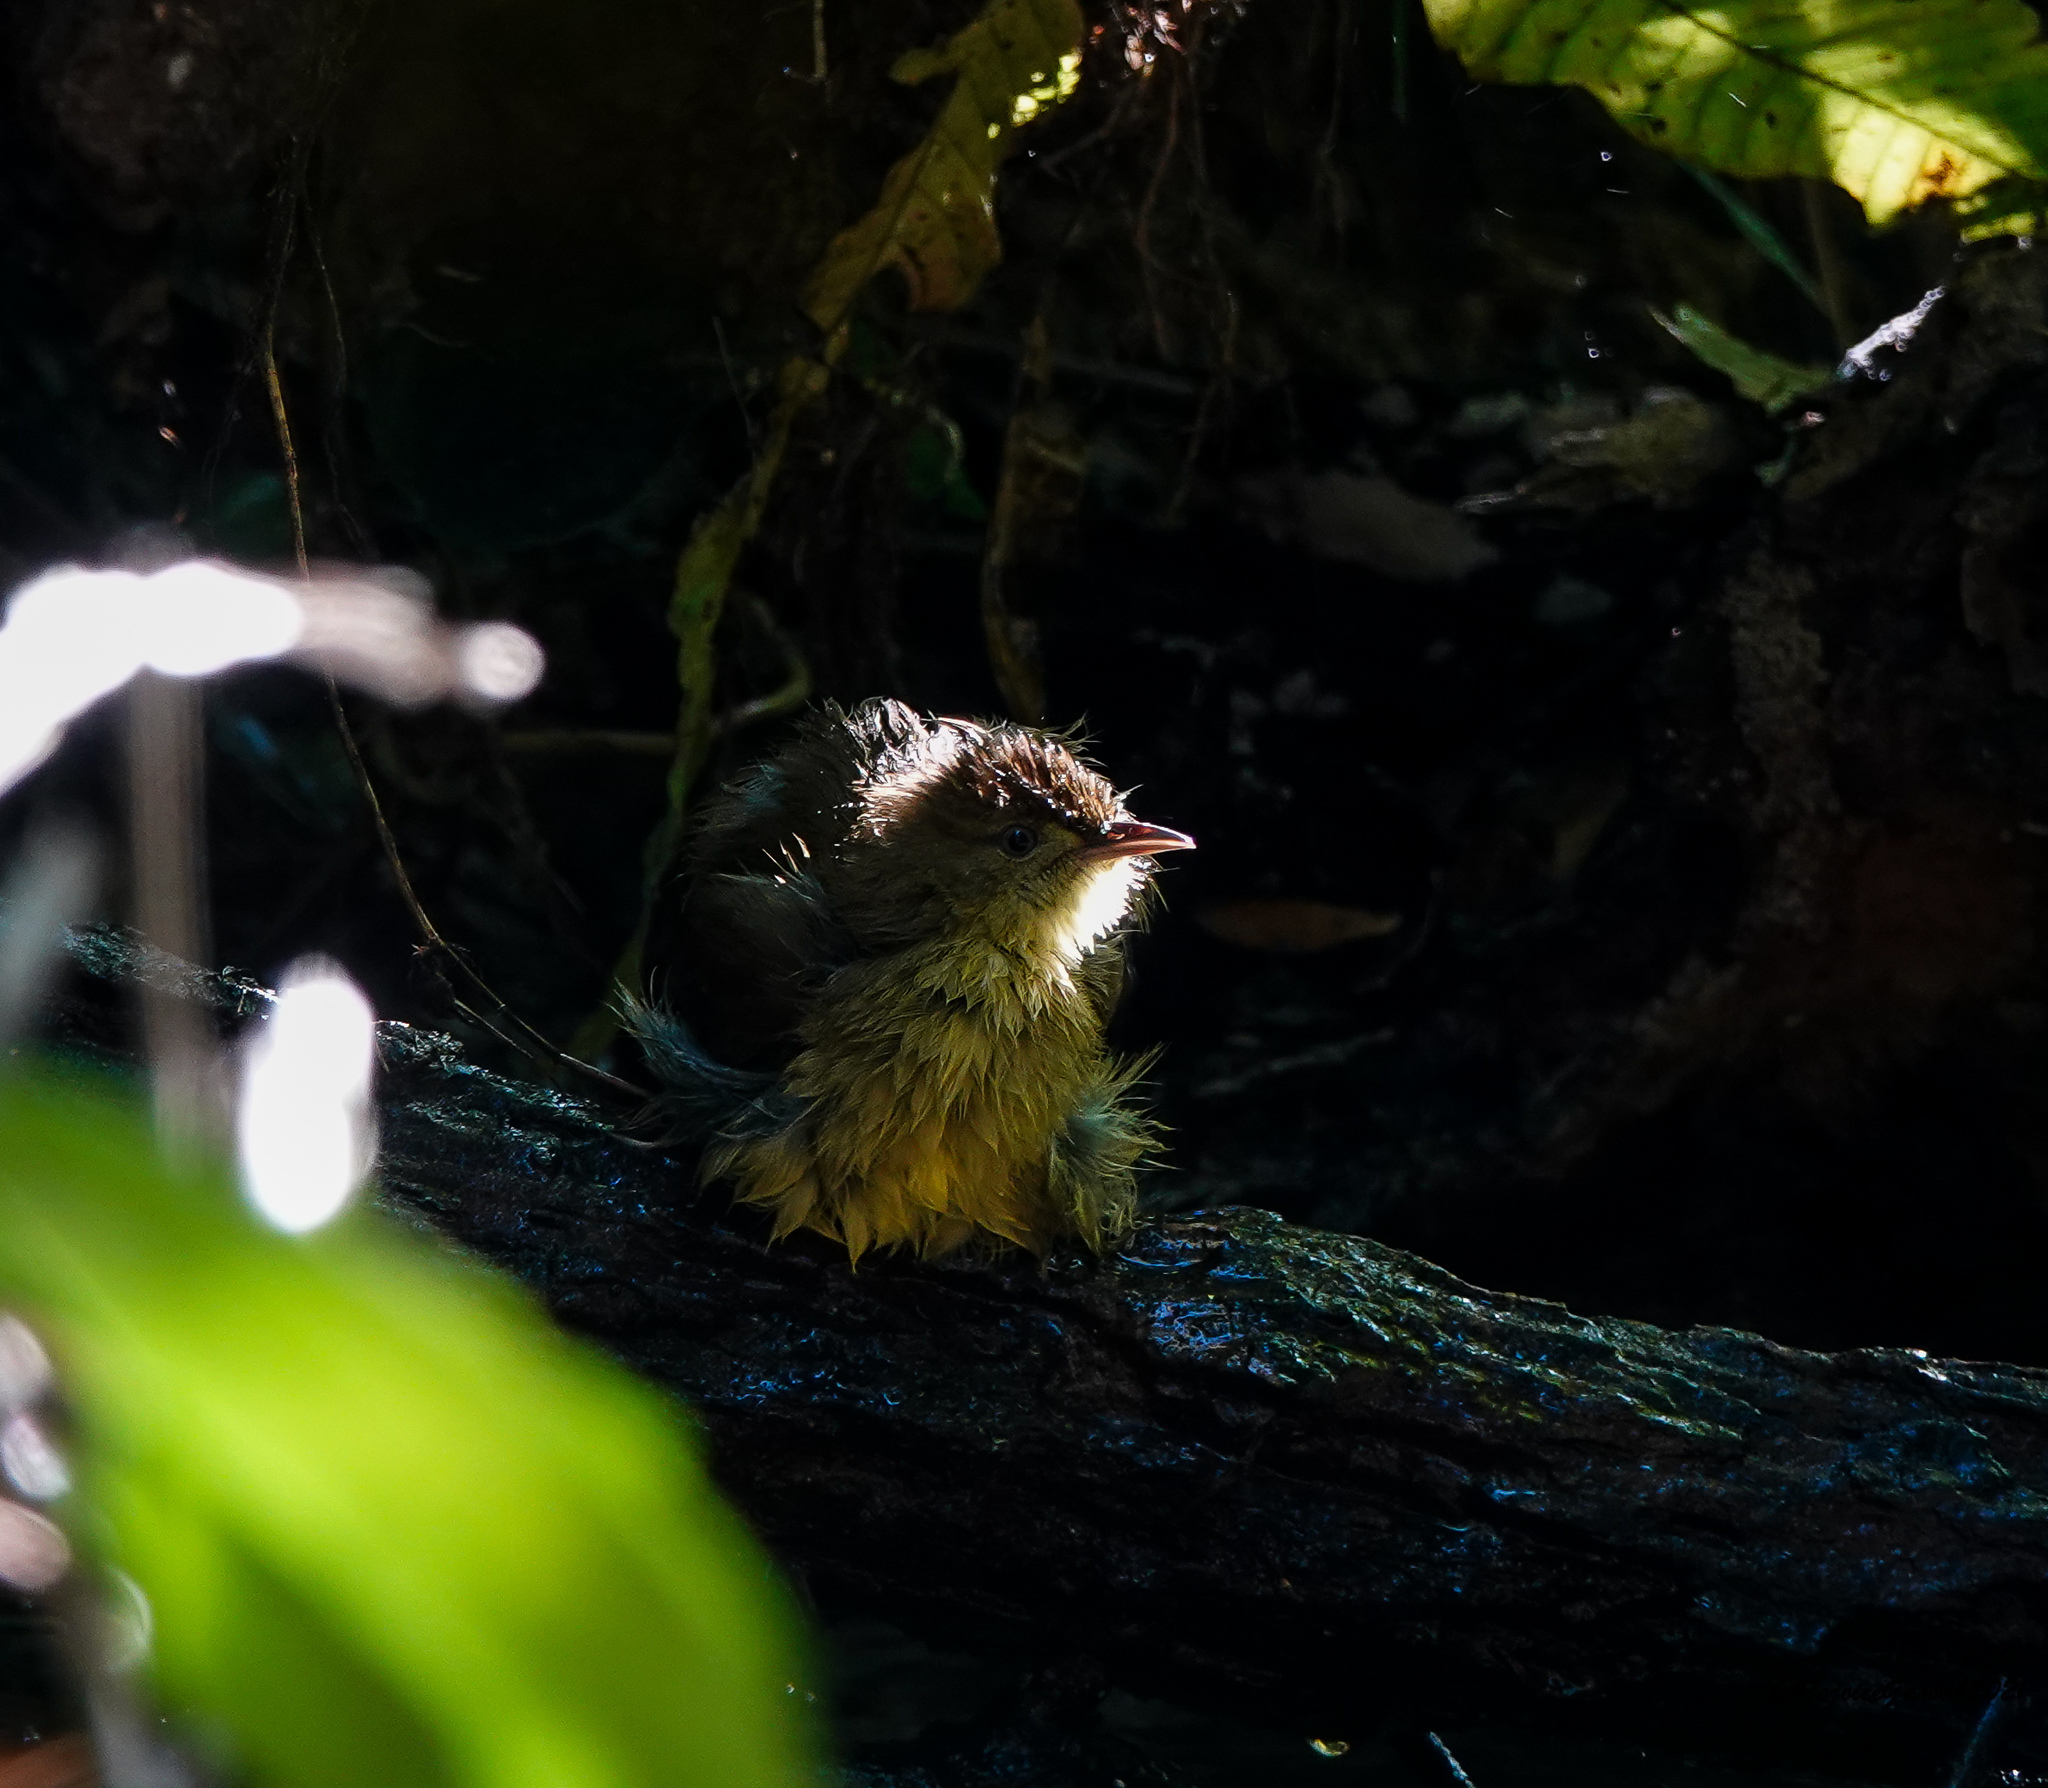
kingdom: Animalia
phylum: Chordata
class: Aves
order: Passeriformes
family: Pycnonotidae
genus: Iole
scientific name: Iole virescens
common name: Olive bulbul
